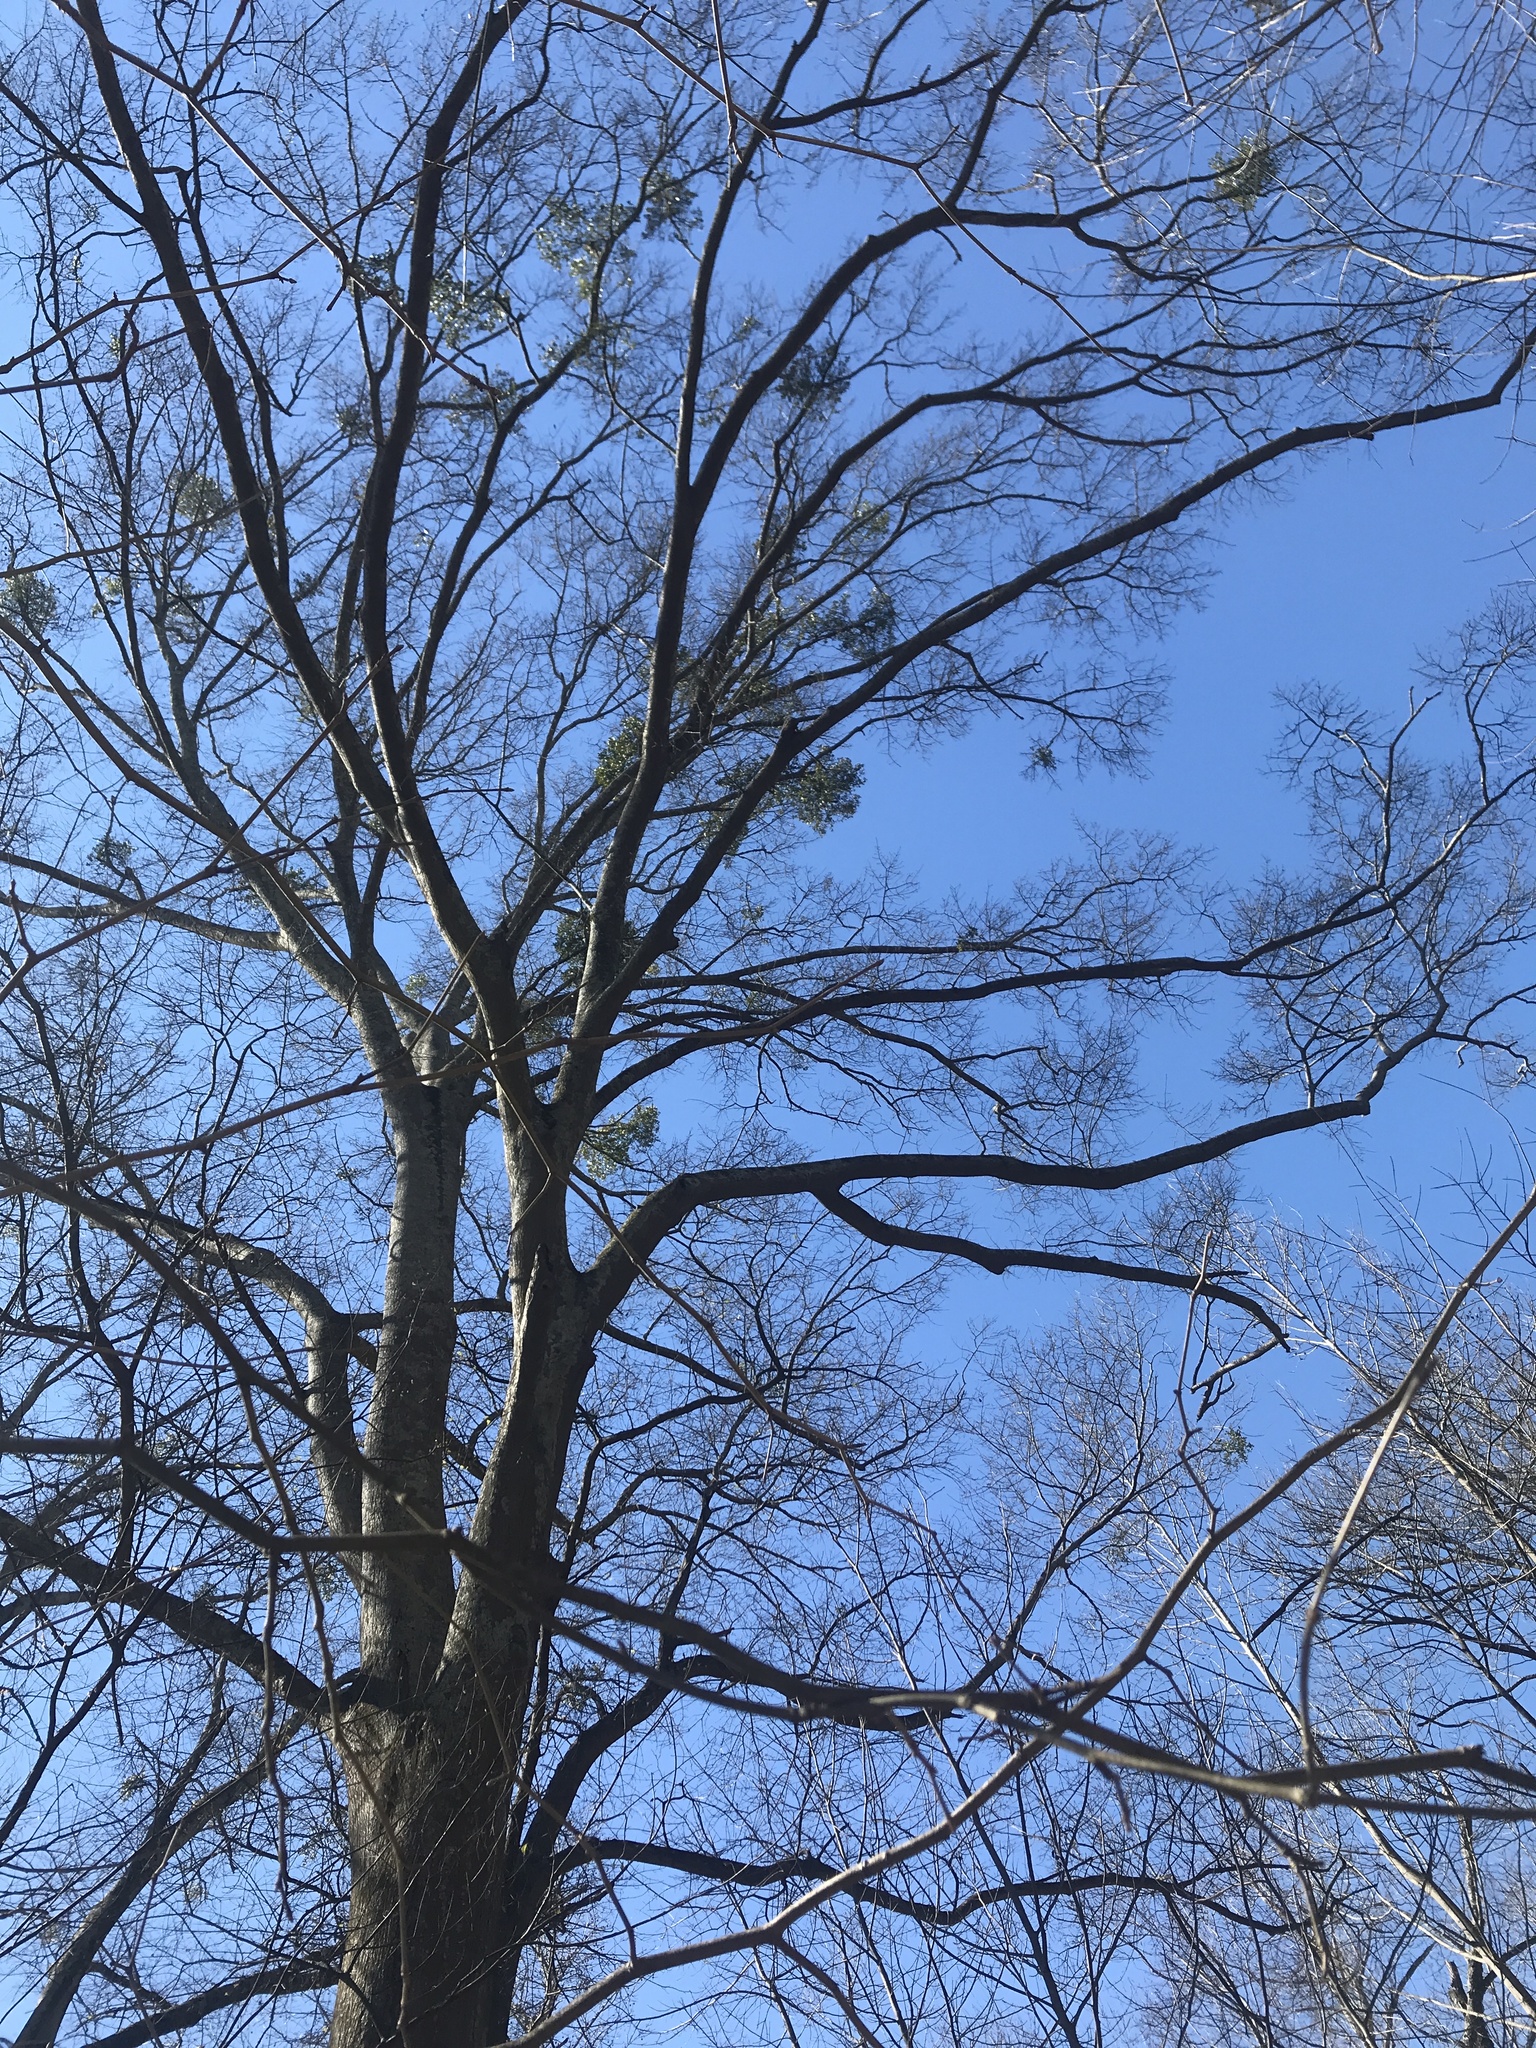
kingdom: Plantae
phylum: Tracheophyta
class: Magnoliopsida
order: Fagales
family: Fagaceae
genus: Quercus
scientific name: Quercus nigra
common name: Water oak
